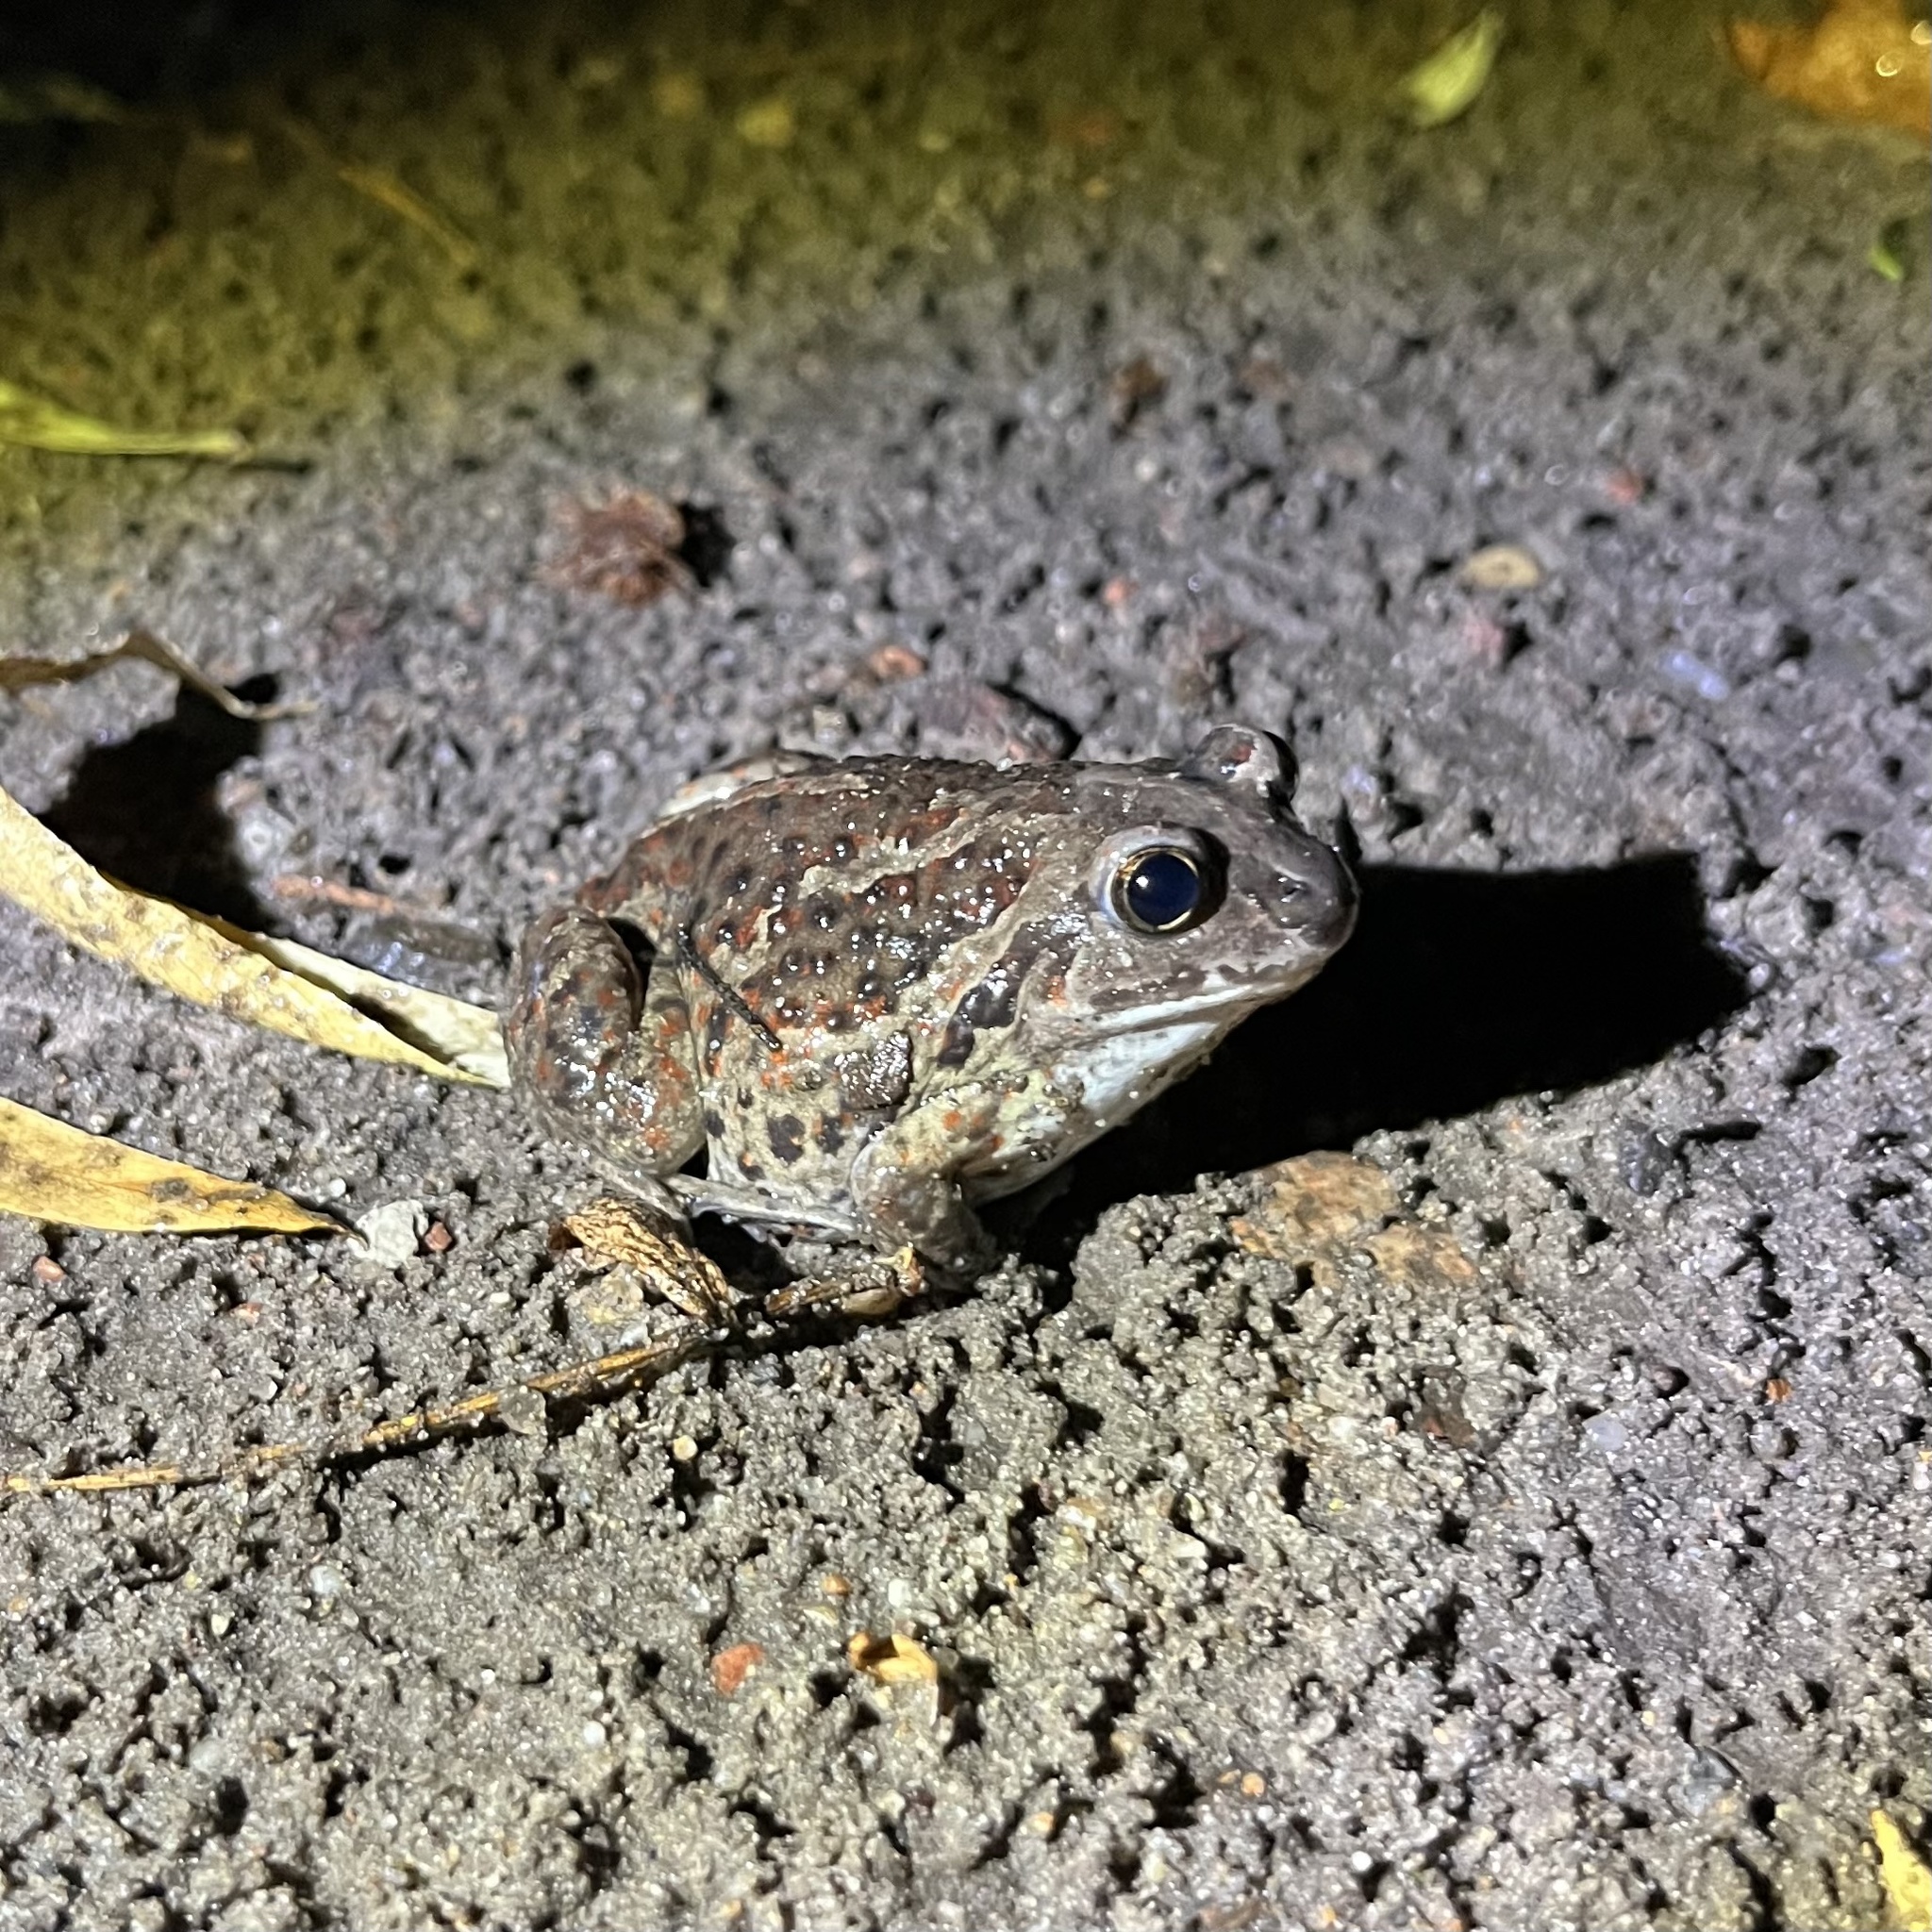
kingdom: Animalia
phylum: Chordata
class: Amphibia
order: Anura
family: Pelobatidae
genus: Pelobates
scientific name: Pelobates fuscus
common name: Common eurasian spadefoot toad
